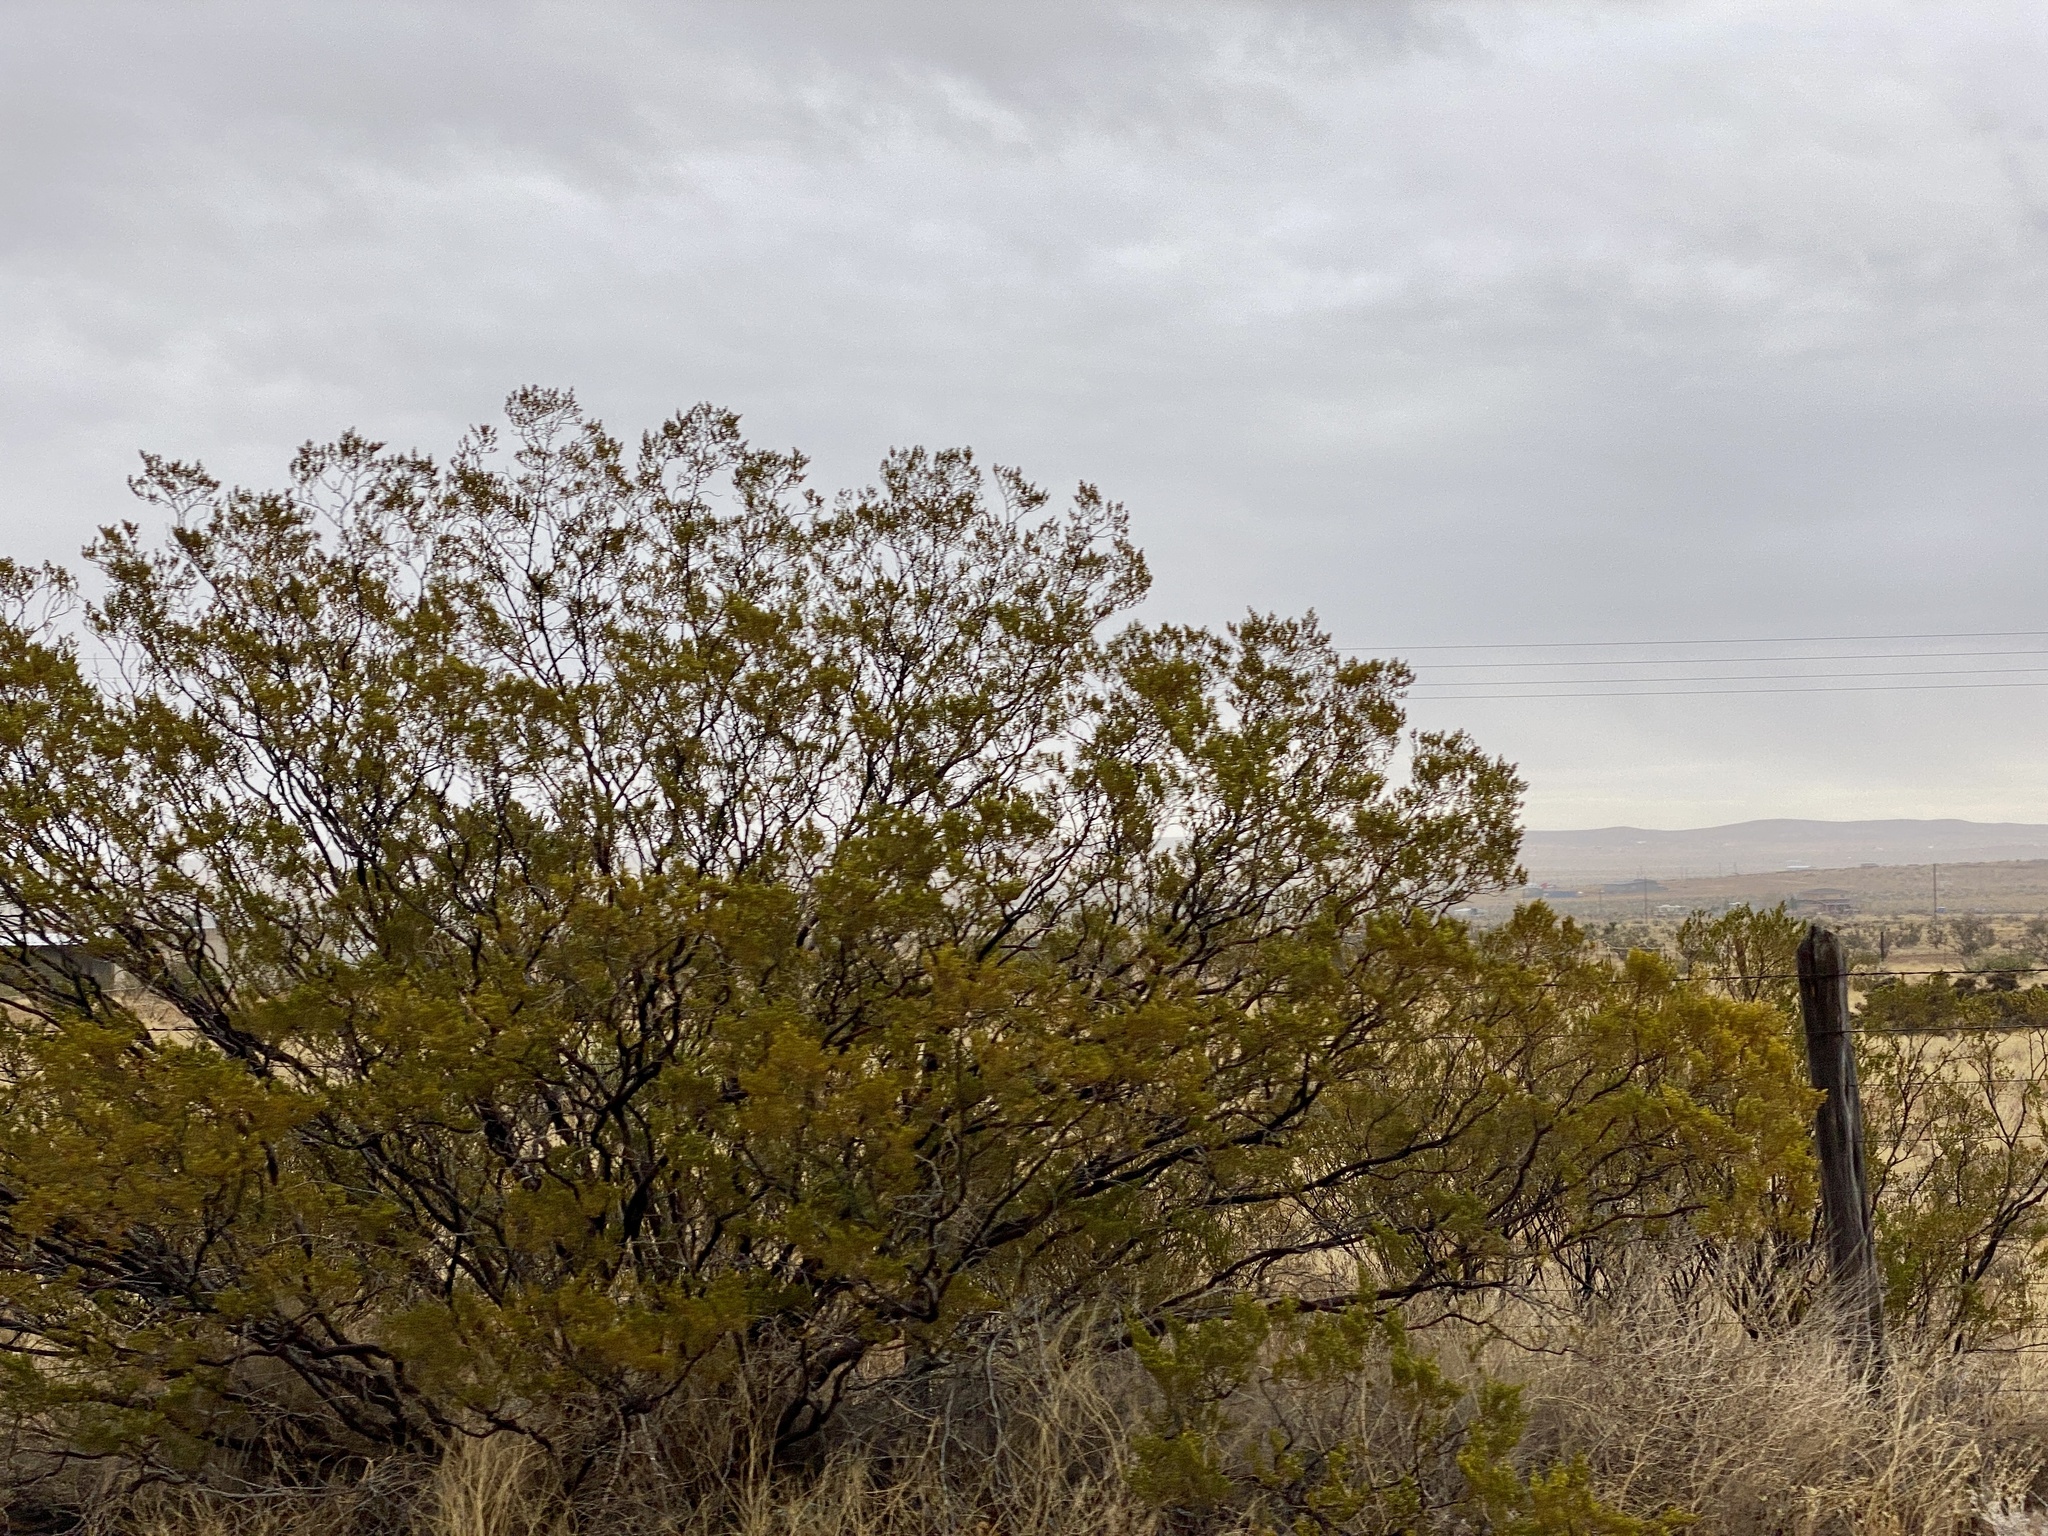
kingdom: Plantae
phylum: Tracheophyta
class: Magnoliopsida
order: Zygophyllales
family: Zygophyllaceae
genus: Larrea
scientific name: Larrea tridentata
